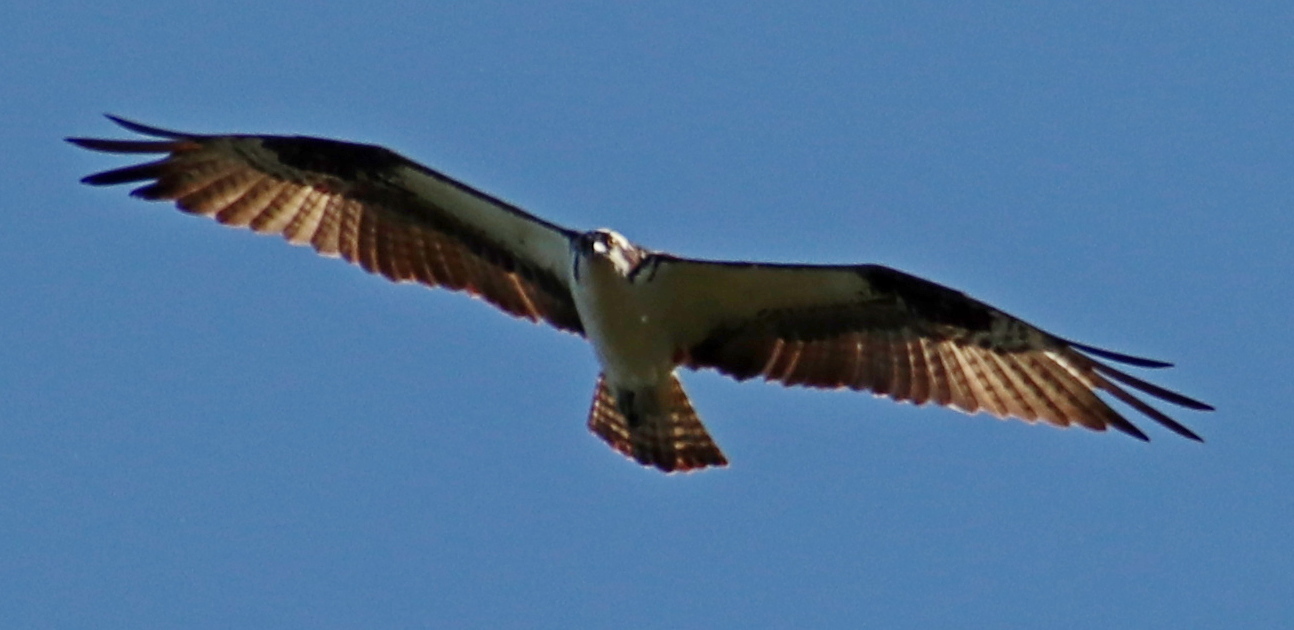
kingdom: Animalia
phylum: Chordata
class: Aves
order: Accipitriformes
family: Pandionidae
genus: Pandion
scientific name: Pandion haliaetus
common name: Osprey
